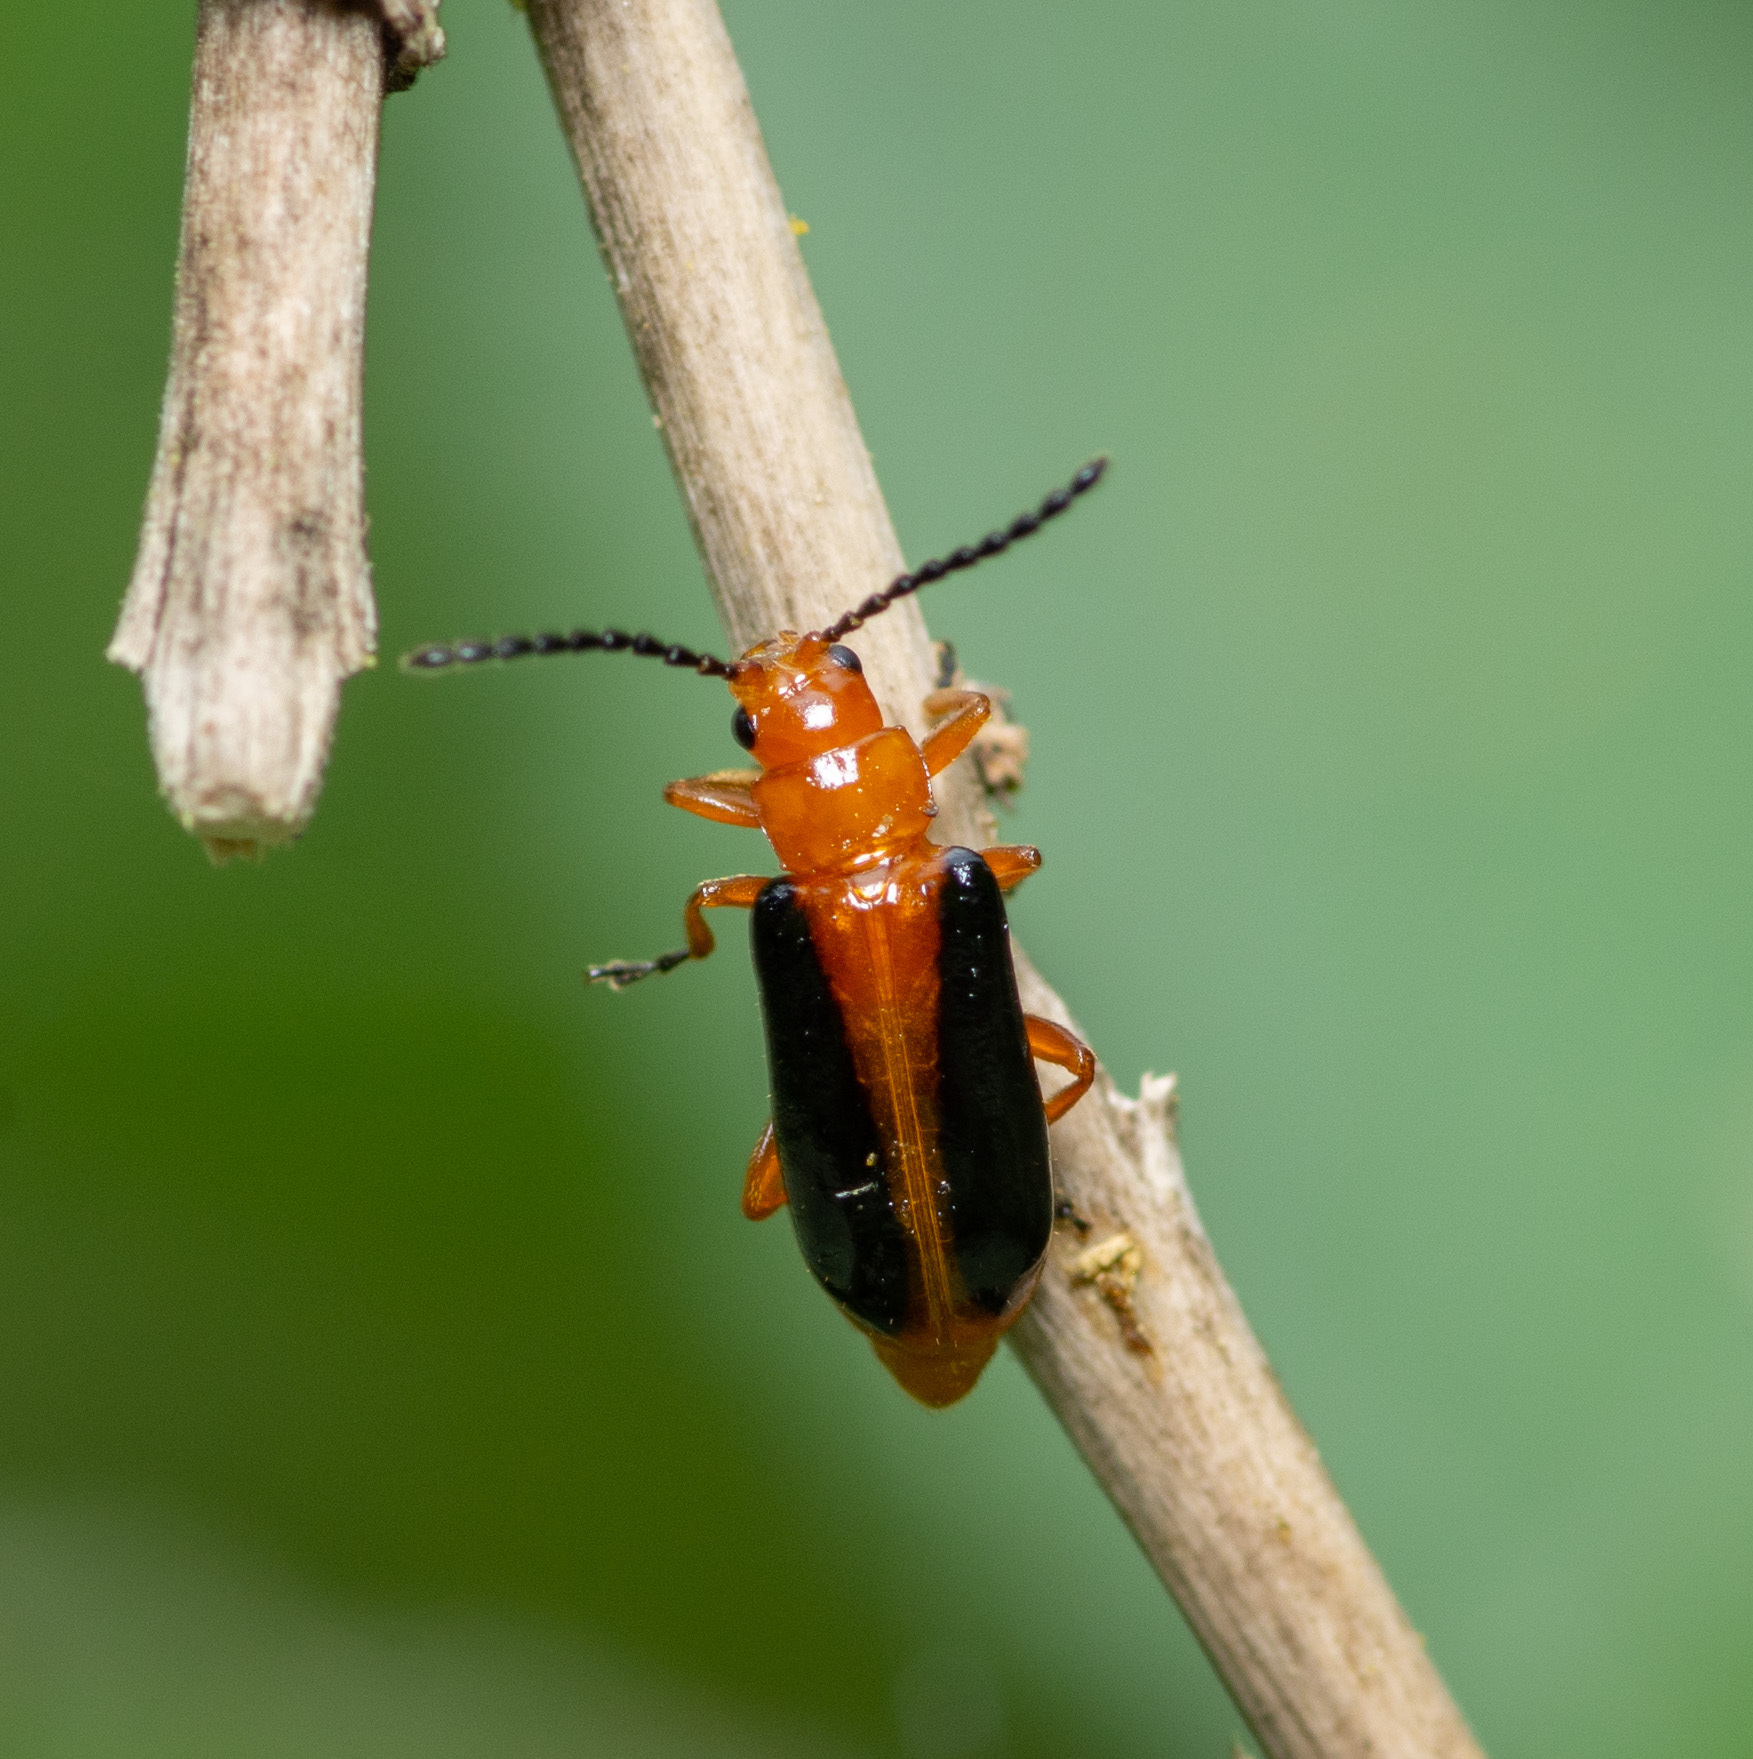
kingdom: Animalia
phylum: Arthropoda
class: Insecta
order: Coleoptera
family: Chrysomelidae
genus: Phyllobrotica
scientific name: Phyllobrotica limbata
